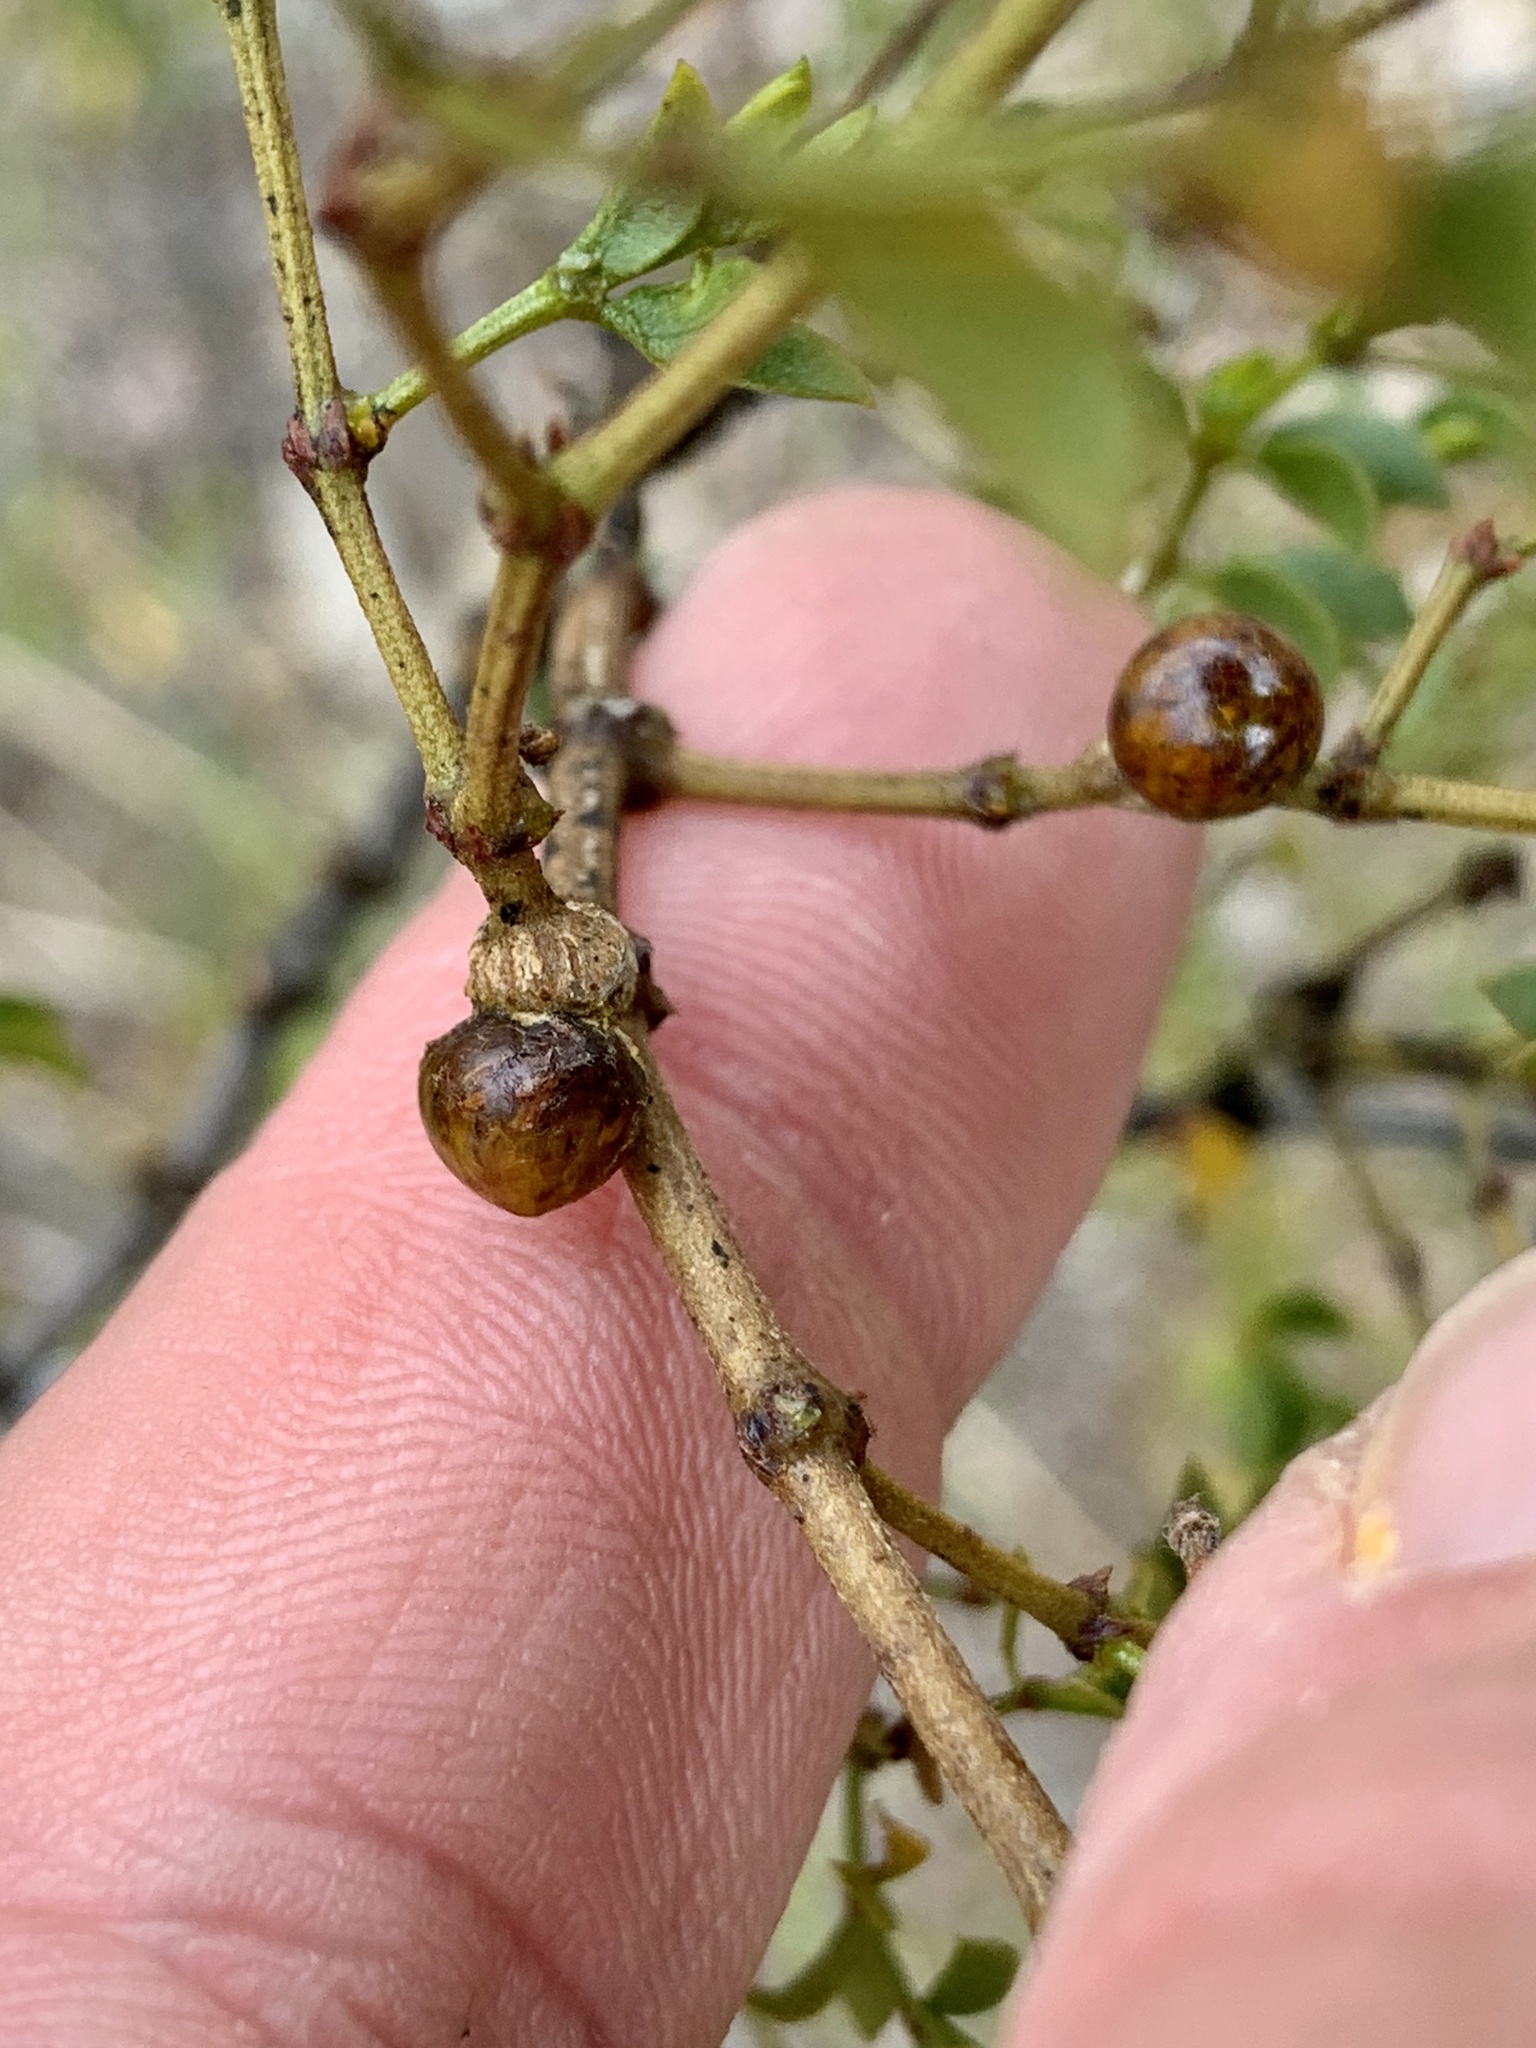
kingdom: Animalia
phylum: Arthropoda
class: Insecta
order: Diptera
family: Cecidomyiidae
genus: Asphondylia
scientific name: Asphondylia resinosa
